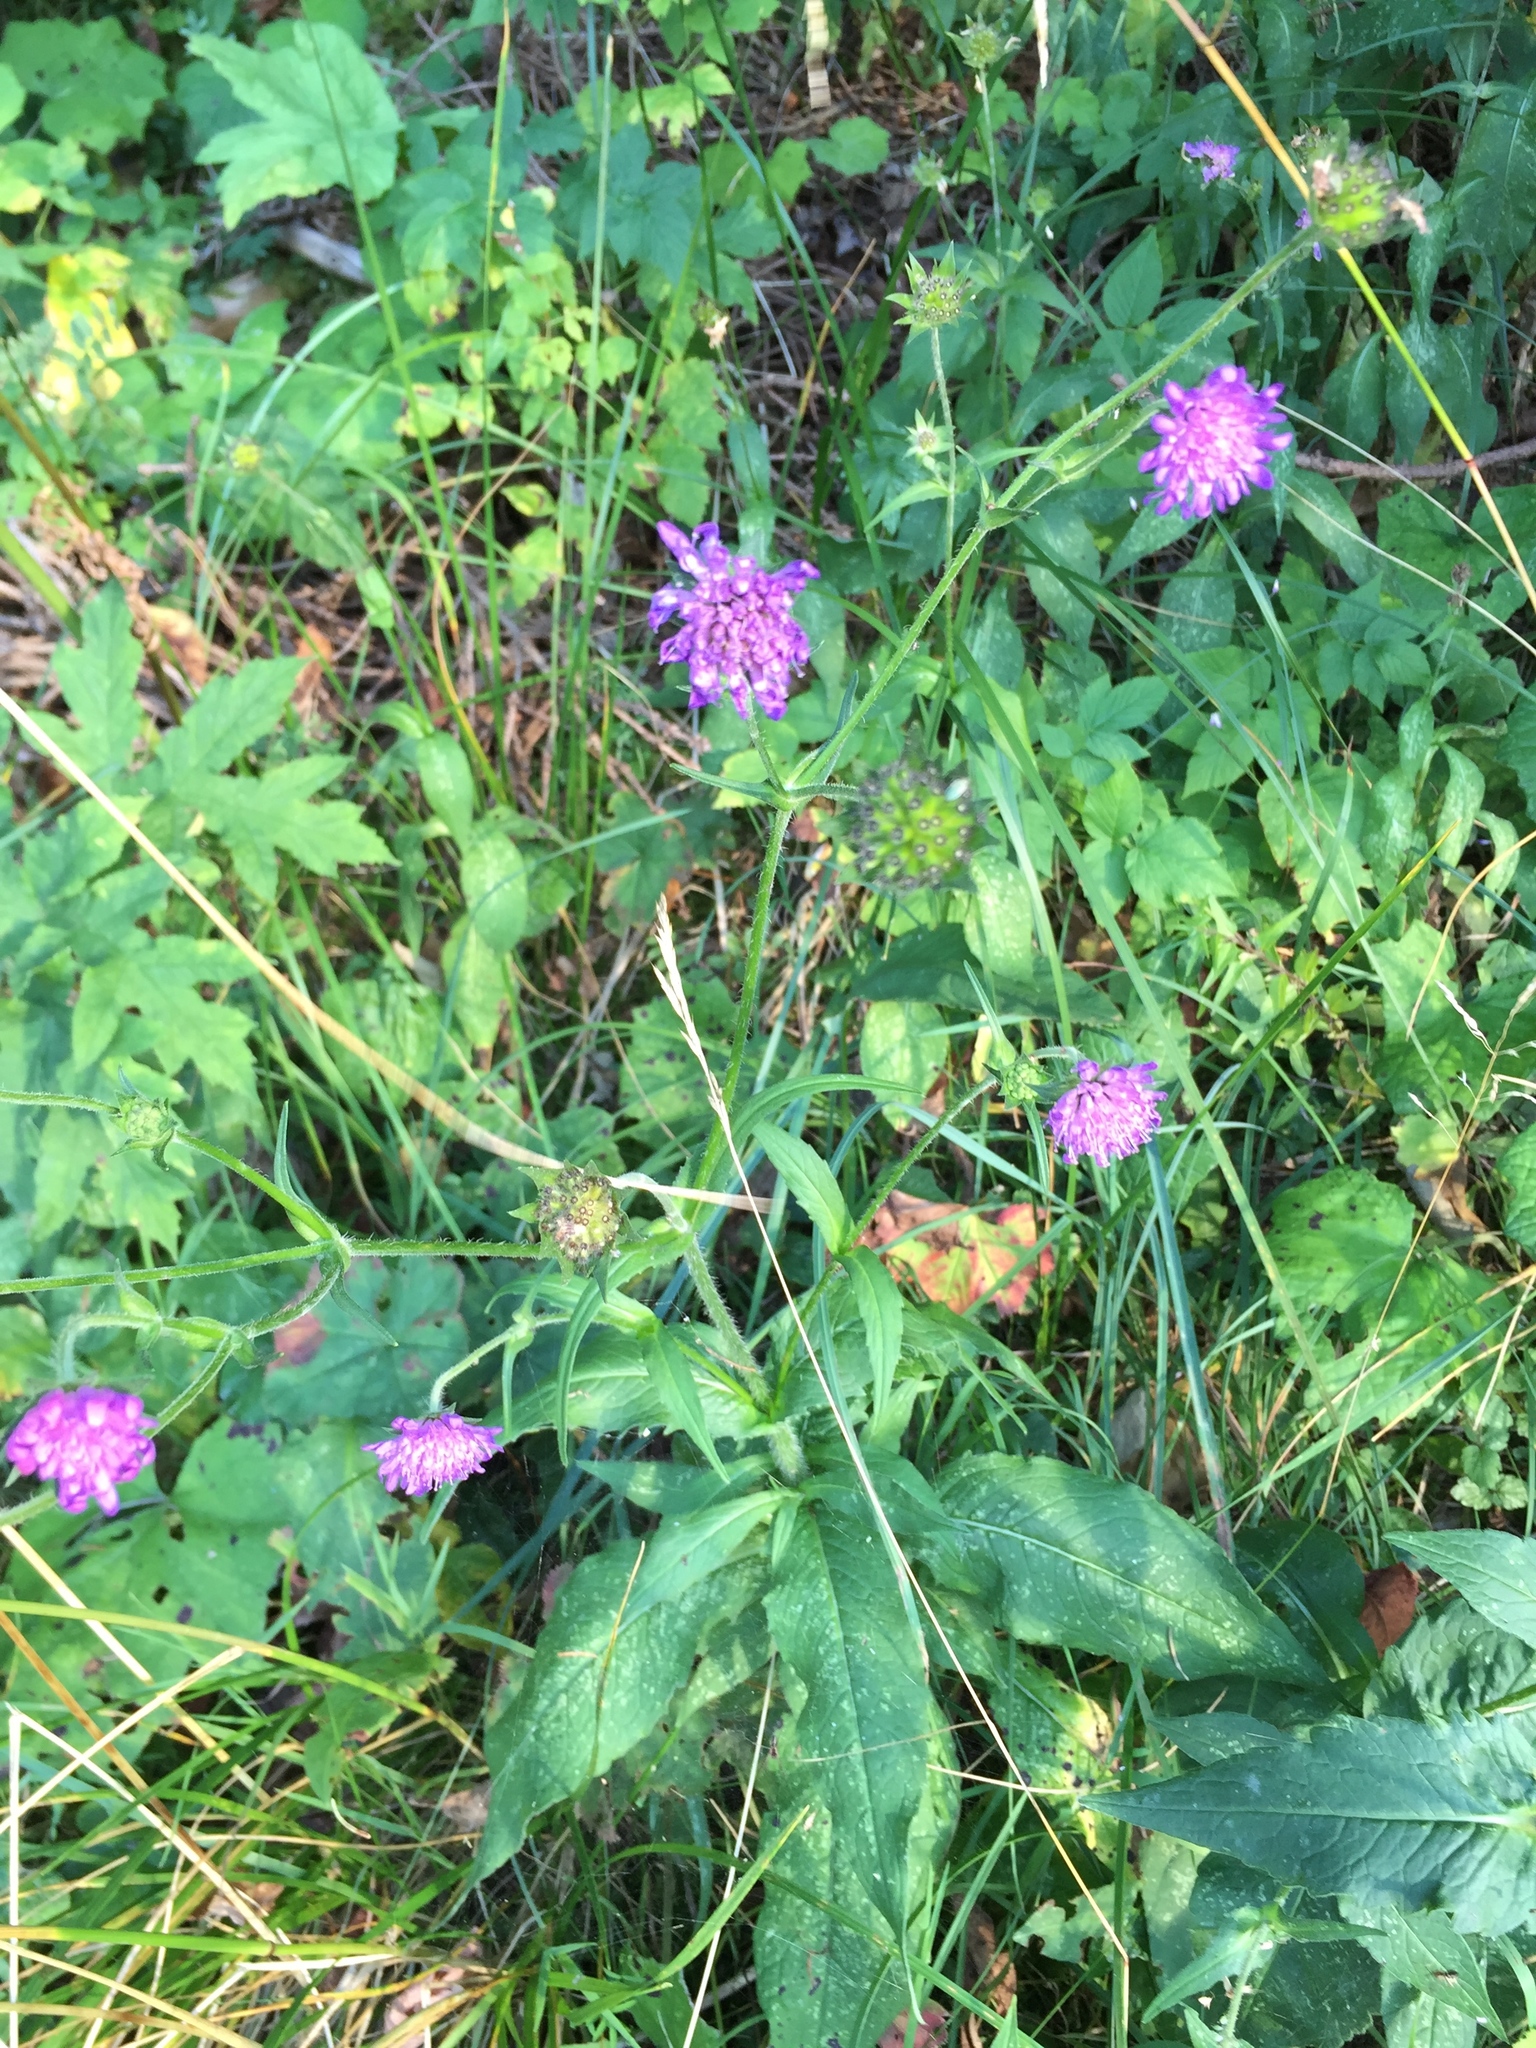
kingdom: Plantae
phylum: Tracheophyta
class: Magnoliopsida
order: Dipsacales
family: Caprifoliaceae
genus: Knautia
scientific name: Knautia dipsacifolia
